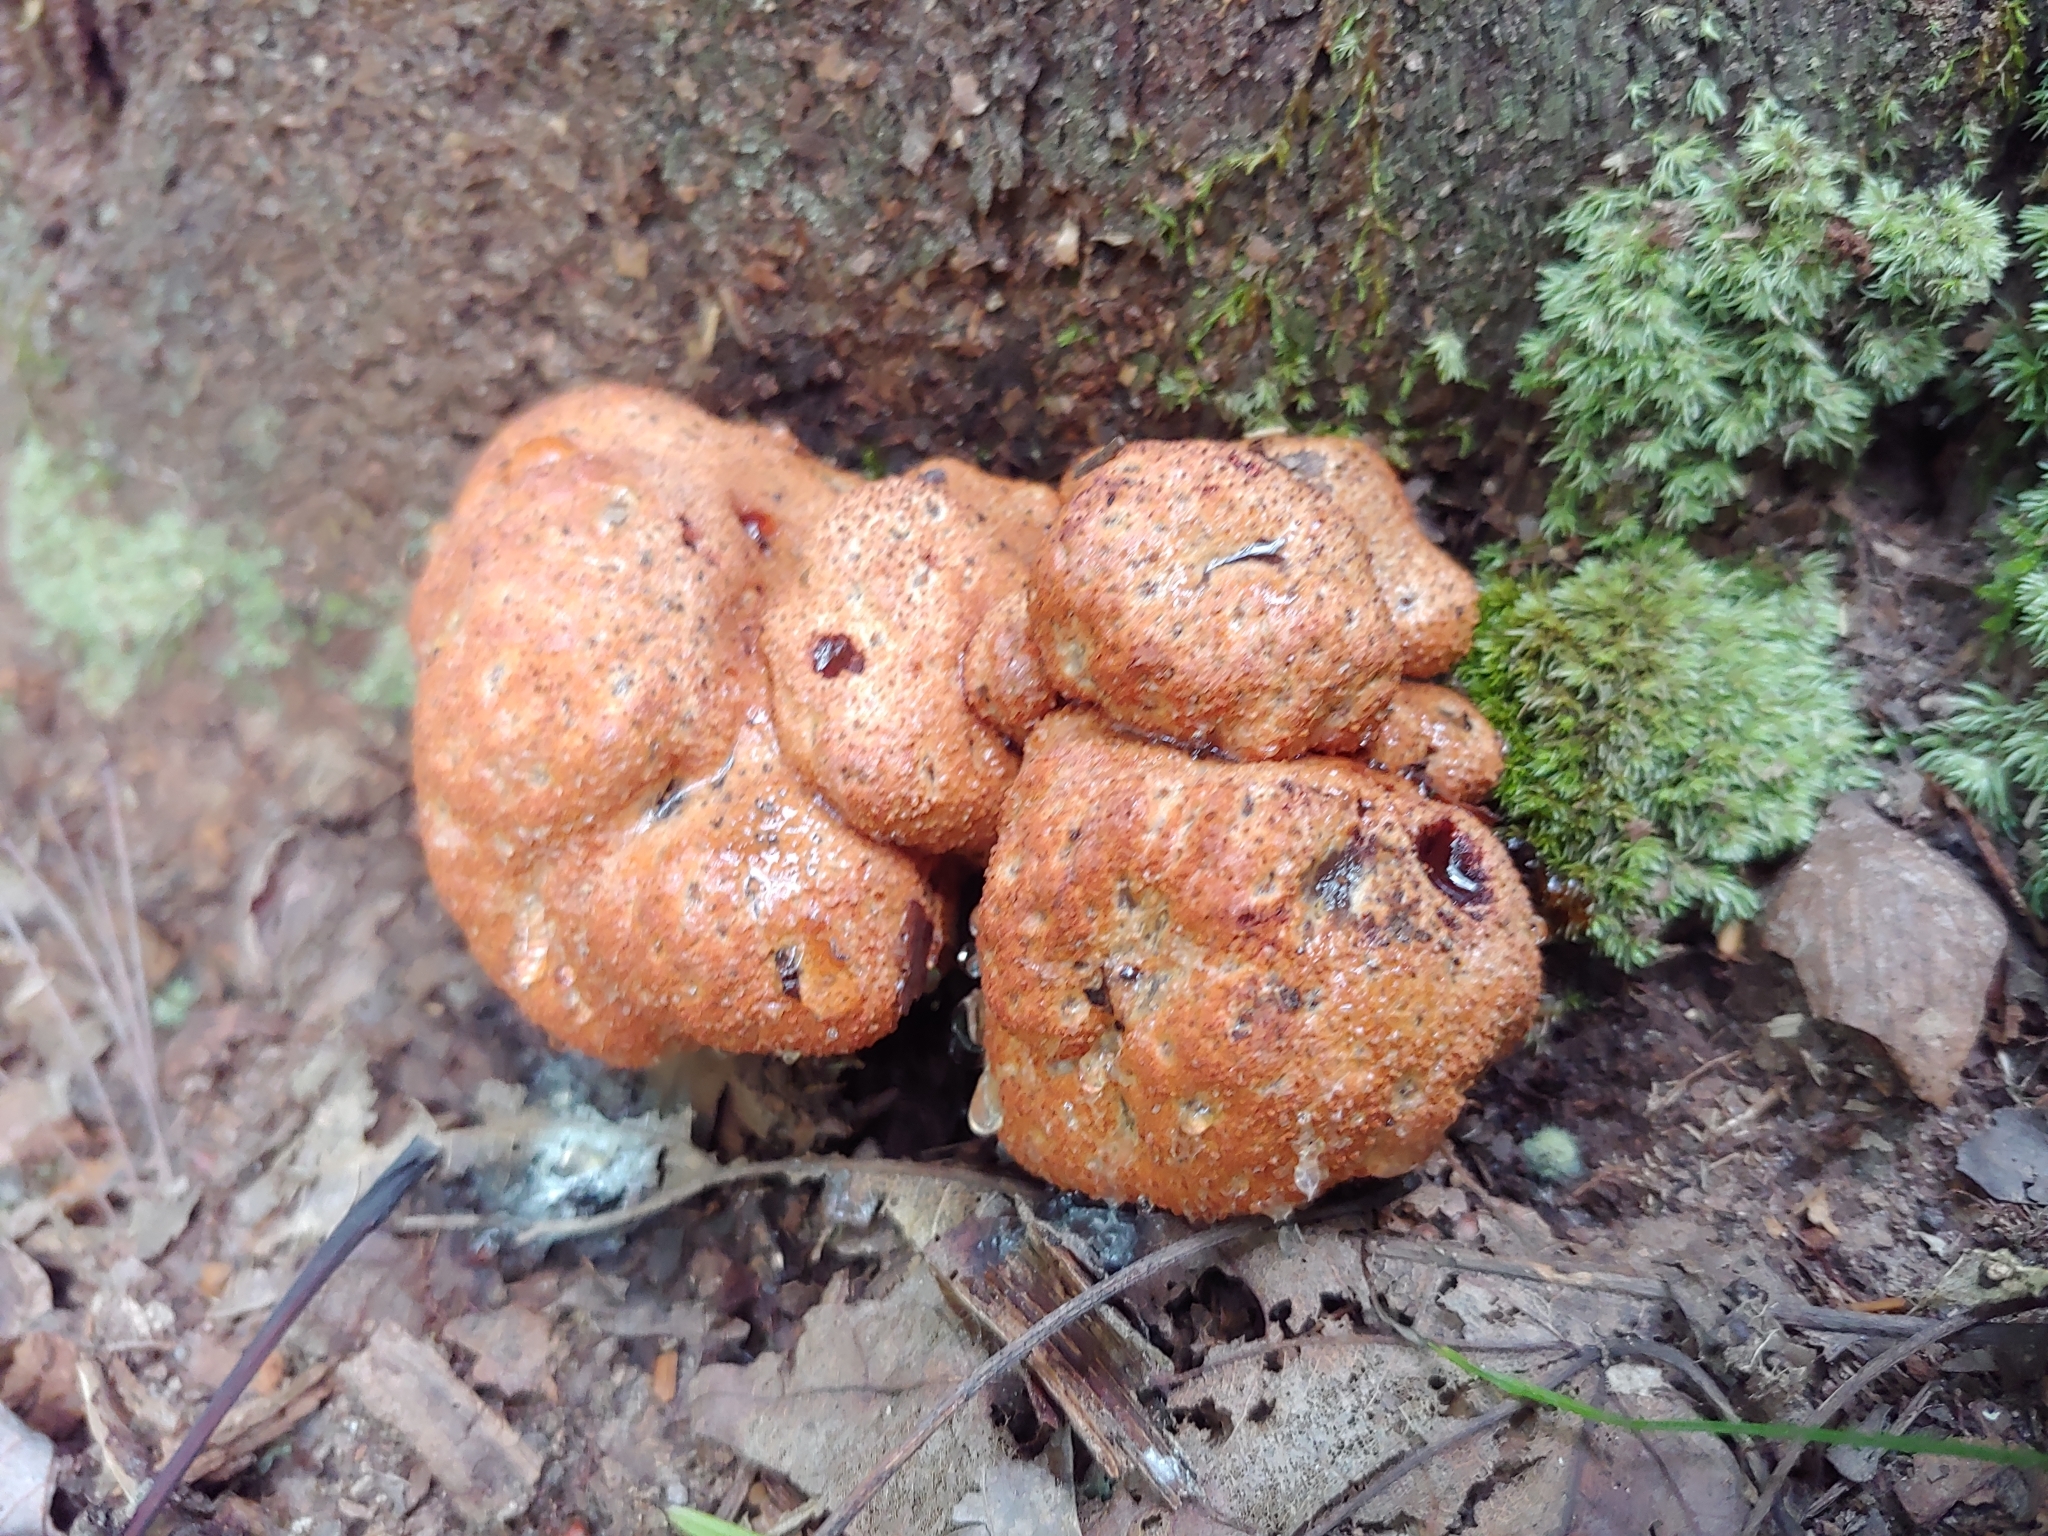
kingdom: Fungi
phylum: Ascomycota
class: Sordariomycetes
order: Hypocreales
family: Hypocreaceae
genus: Hypomyces
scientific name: Hypomyces lactifluorum
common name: Lobster mushroom
